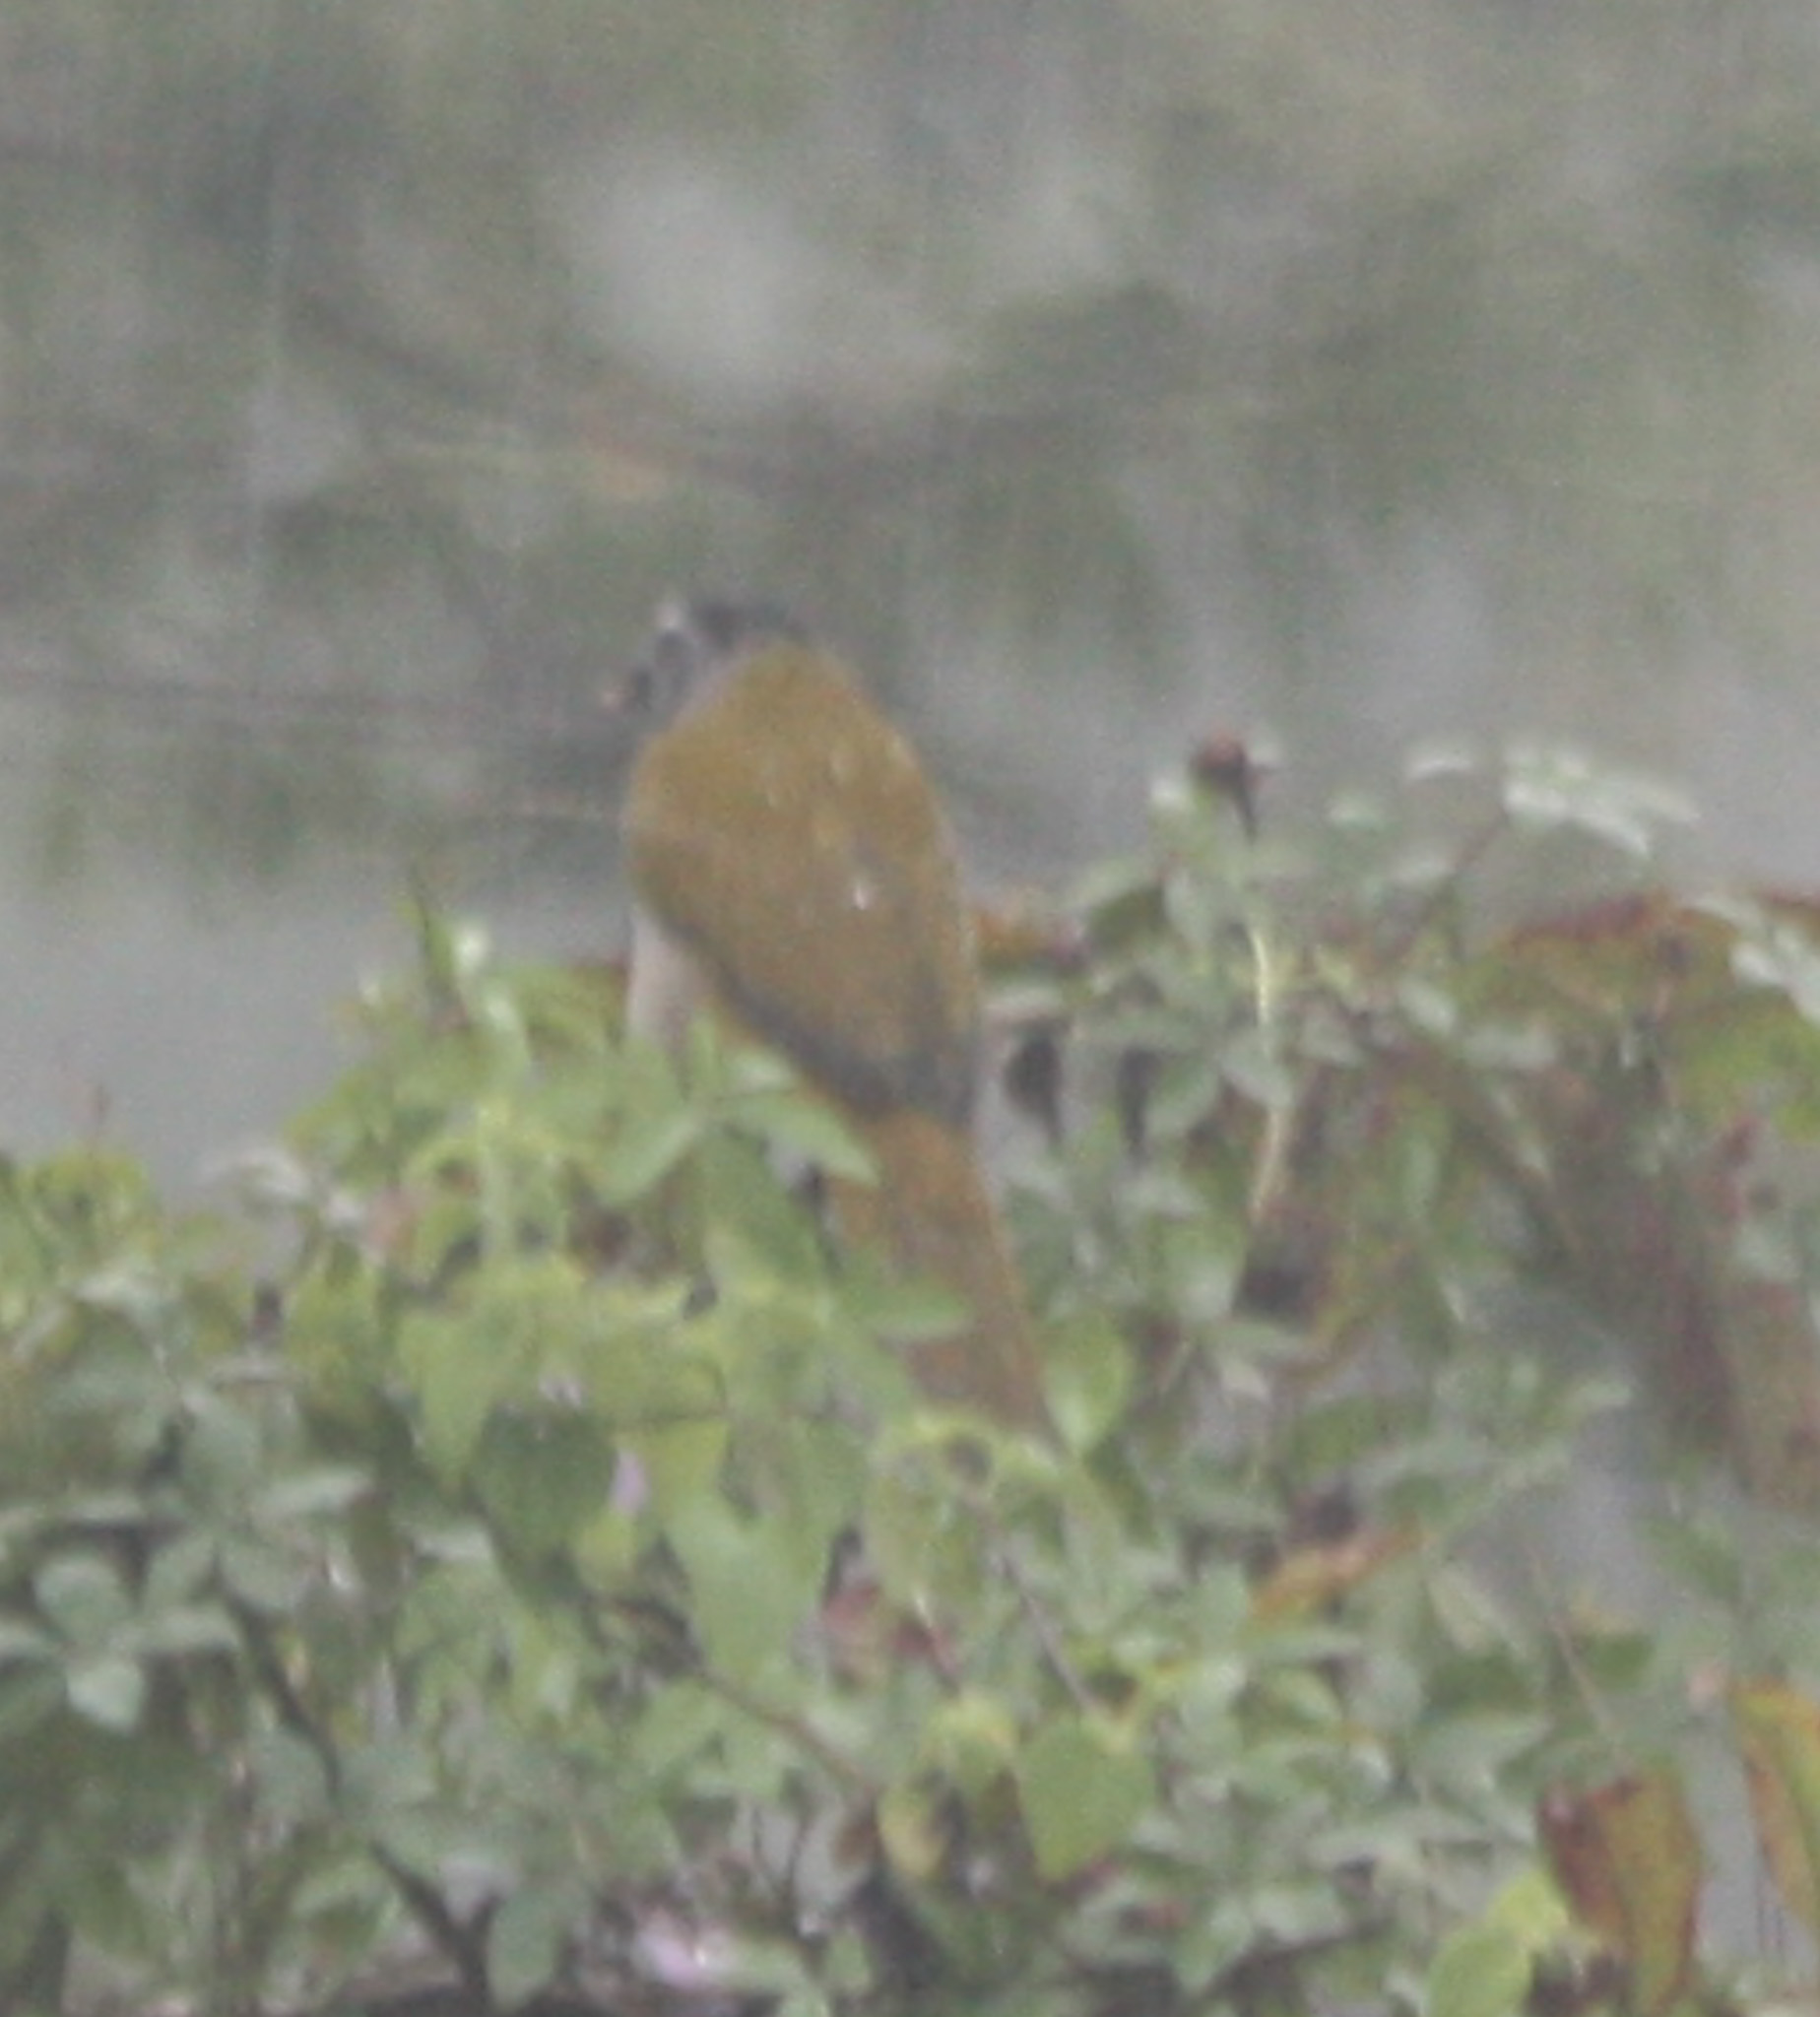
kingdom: Animalia
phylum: Chordata
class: Aves
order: Passeriformes
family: Thraupidae
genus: Saltator
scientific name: Saltator atriceps
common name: Black-headed saltator
